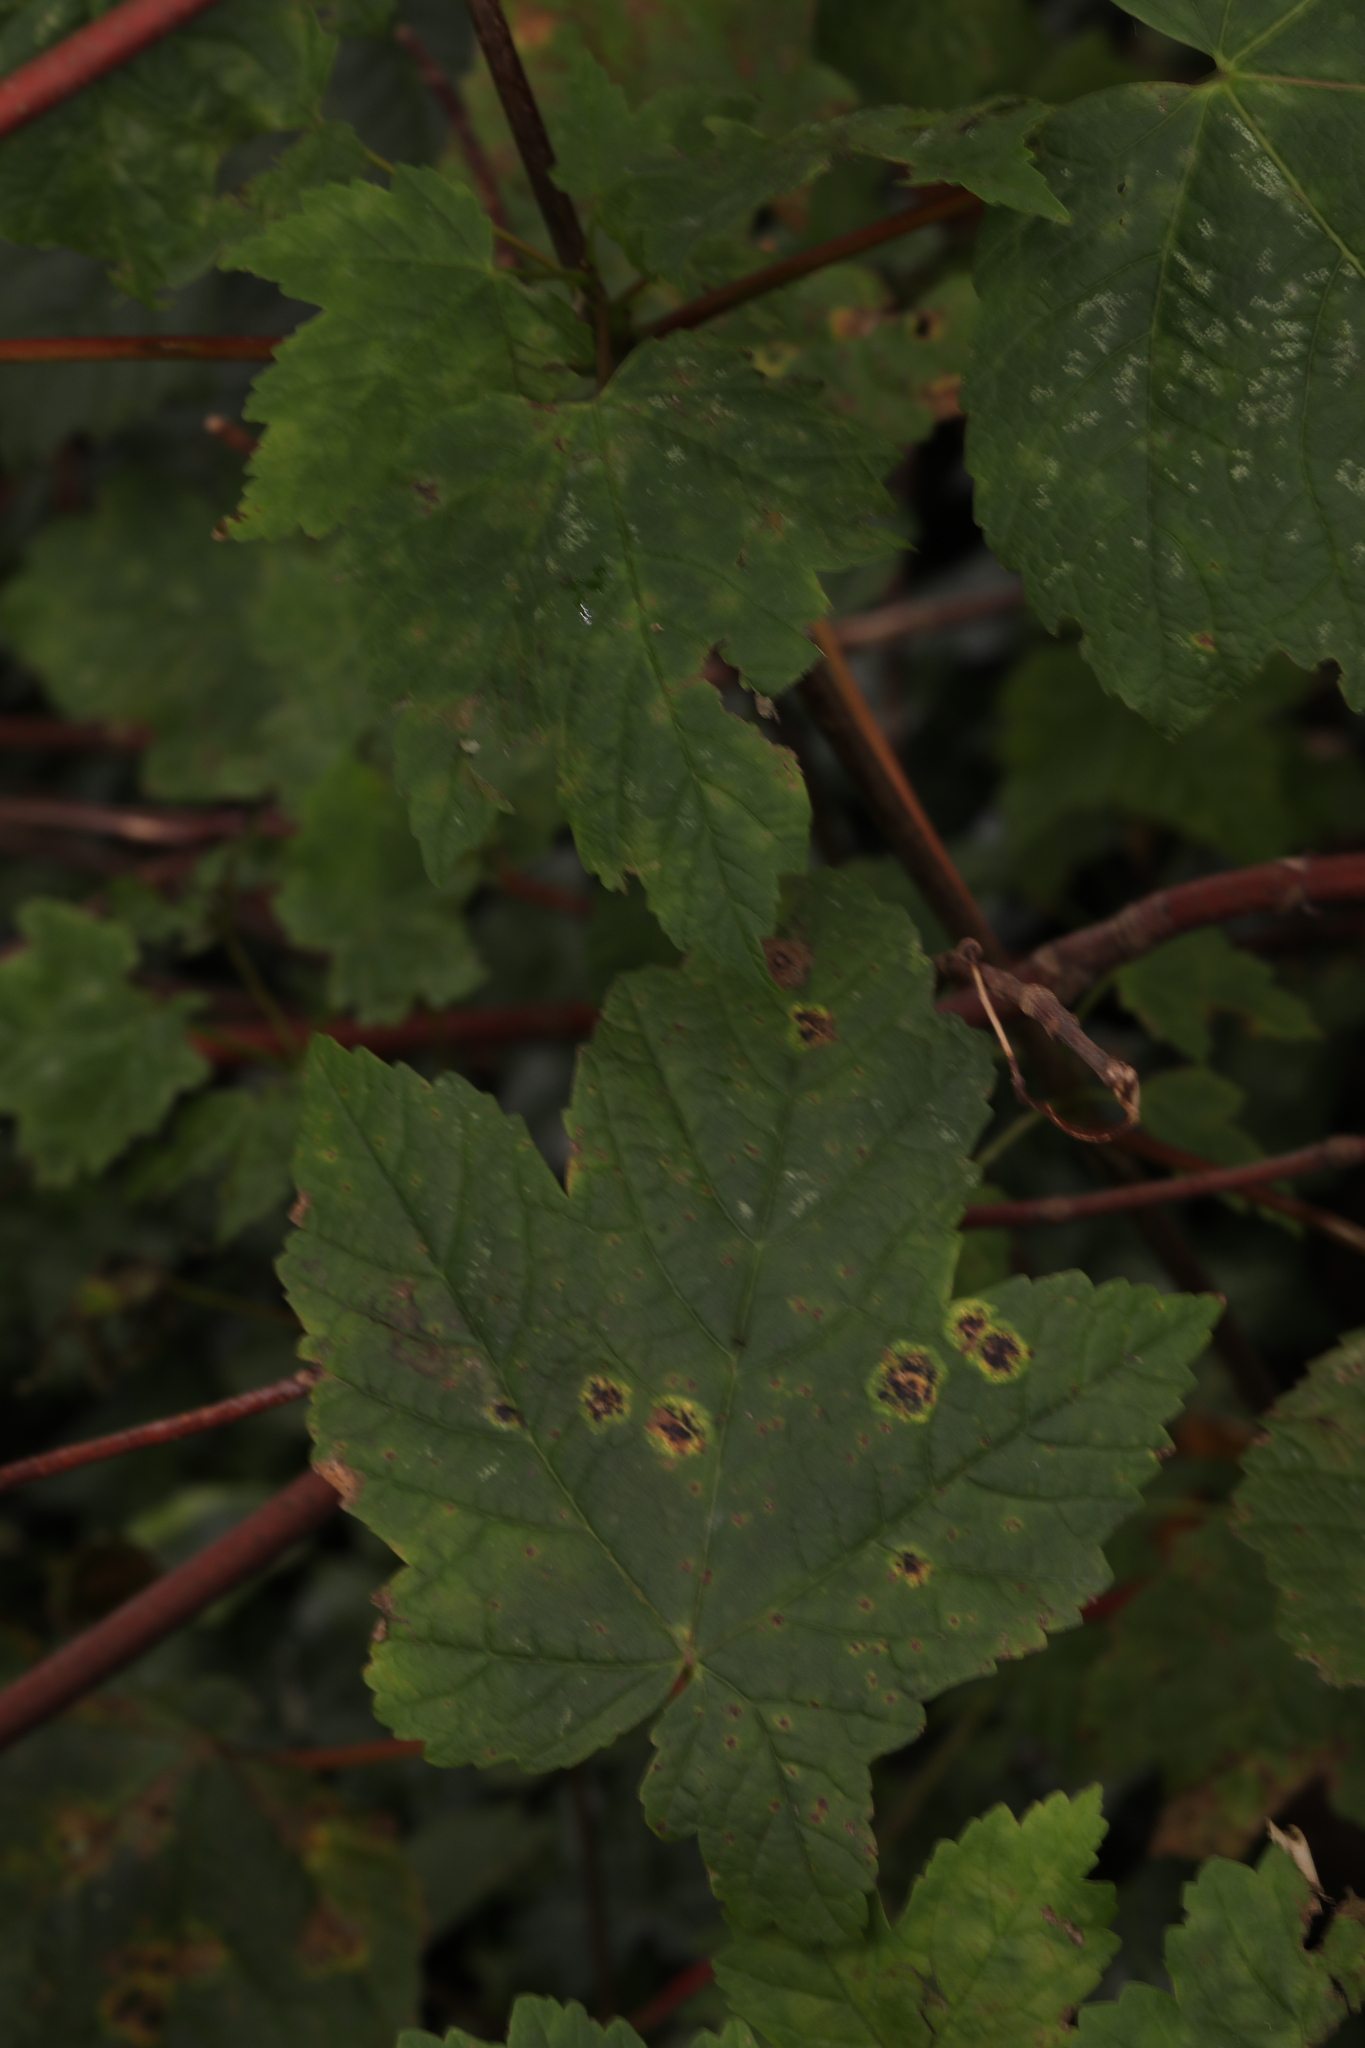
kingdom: Fungi
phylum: Ascomycota
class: Leotiomycetes
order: Rhytismatales
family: Rhytismataceae
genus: Rhytisma
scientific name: Rhytisma acerinum
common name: European tar spot
